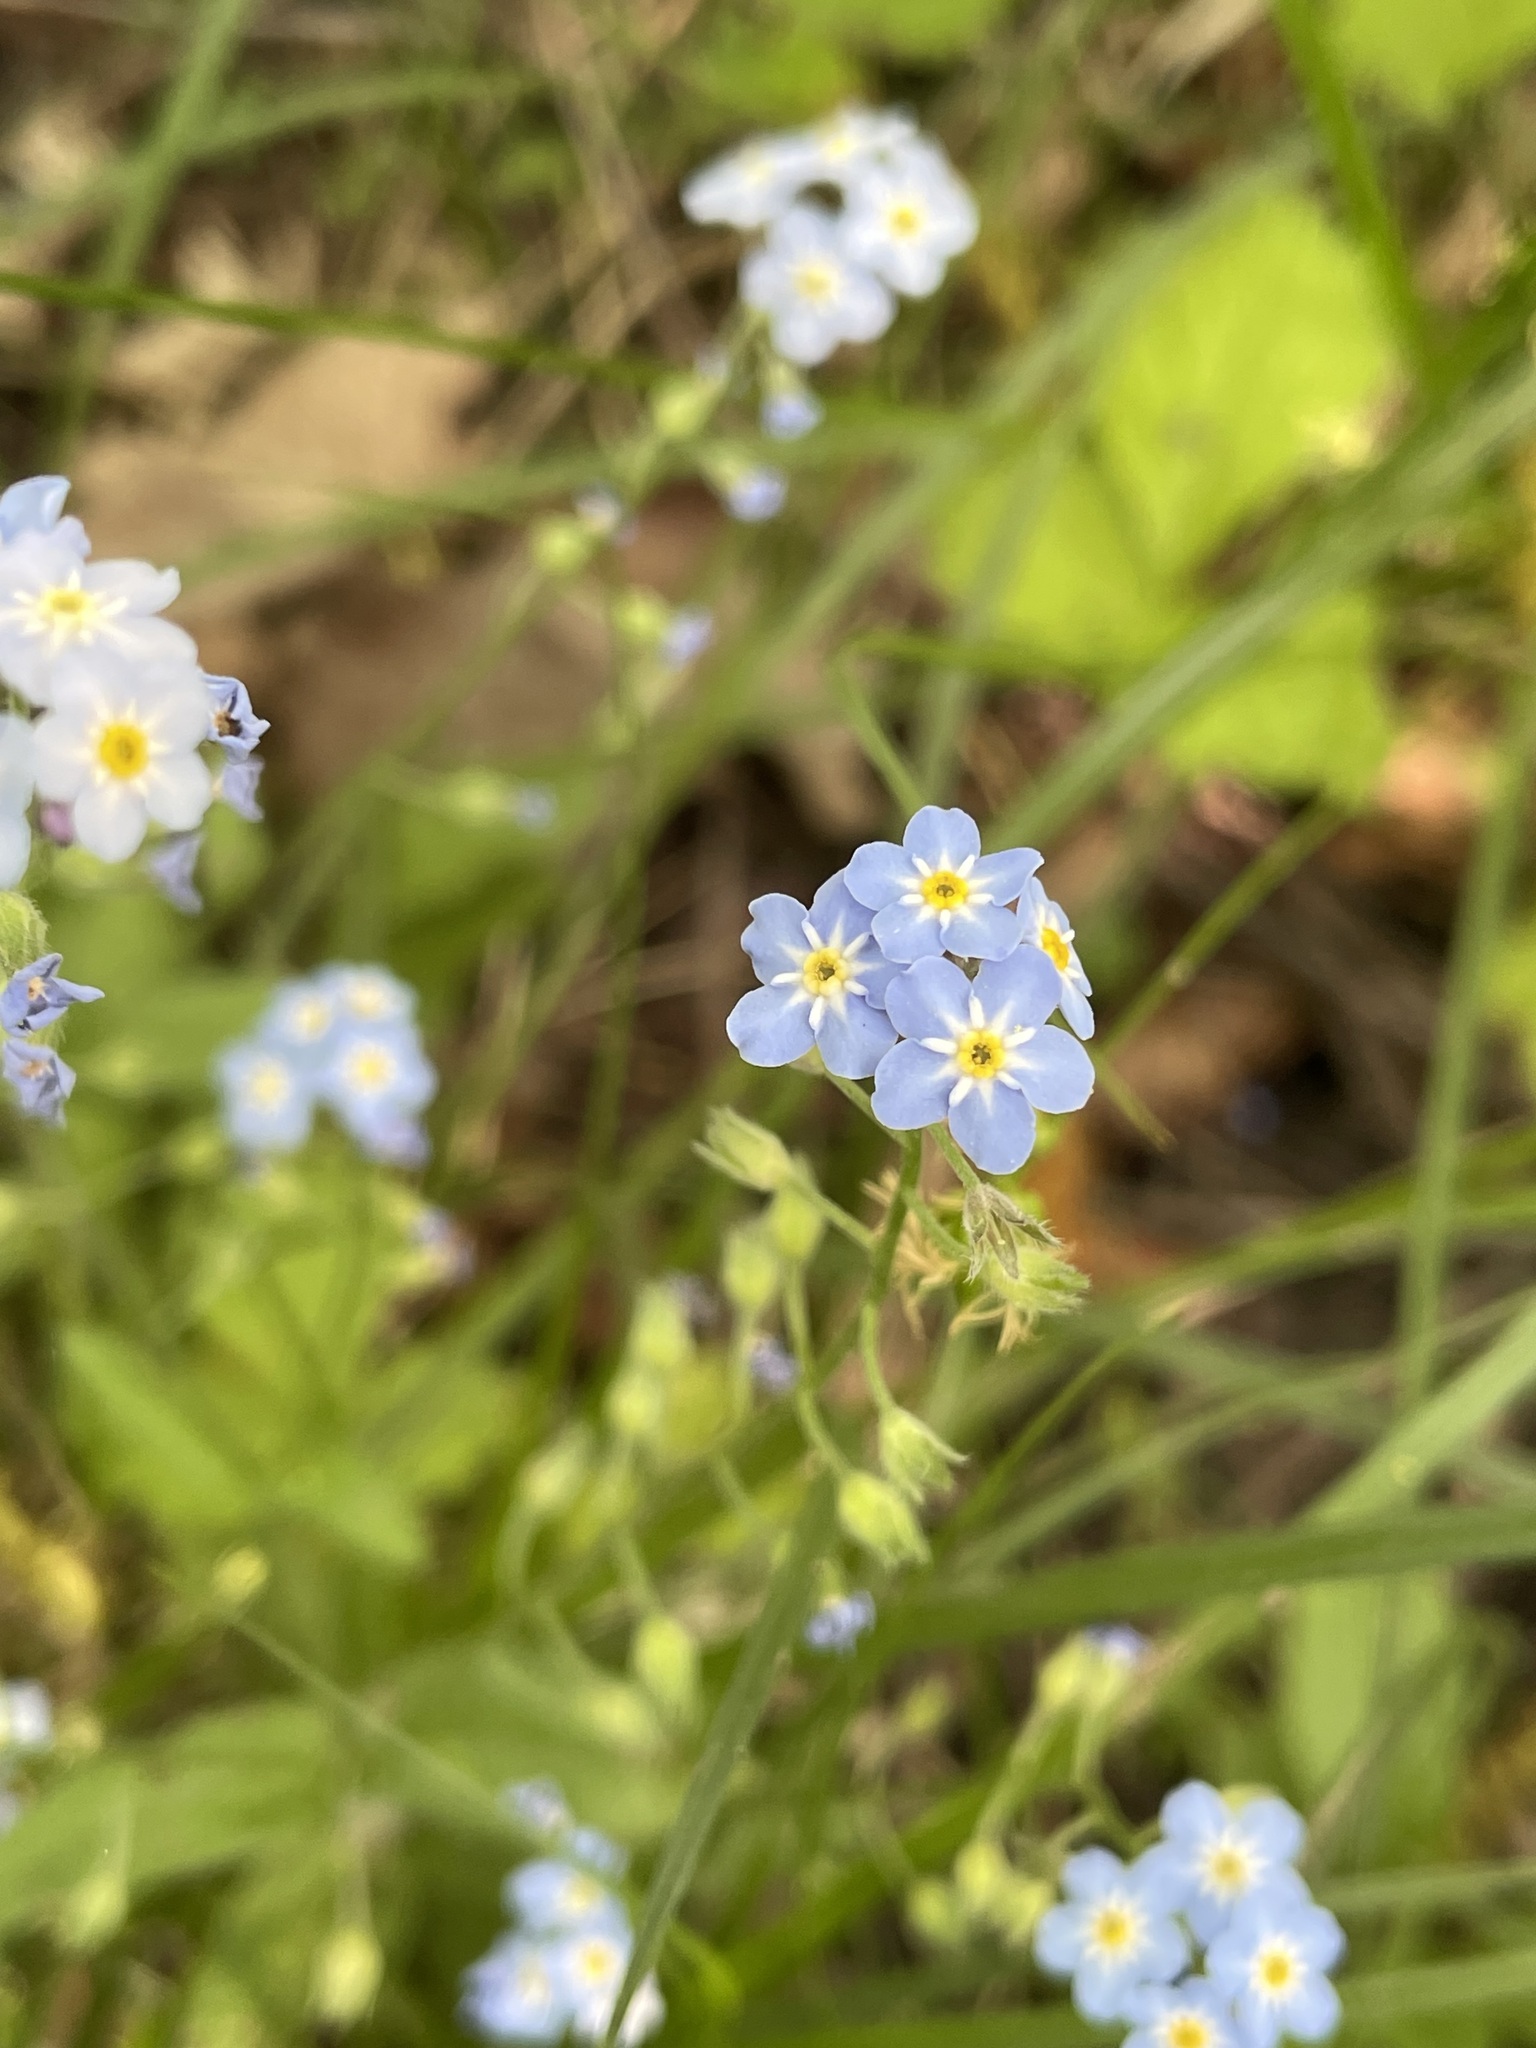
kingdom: Plantae
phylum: Tracheophyta
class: Magnoliopsida
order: Boraginales
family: Boraginaceae
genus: Myosotis
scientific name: Myosotis sylvatica
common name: Wood forget-me-not
